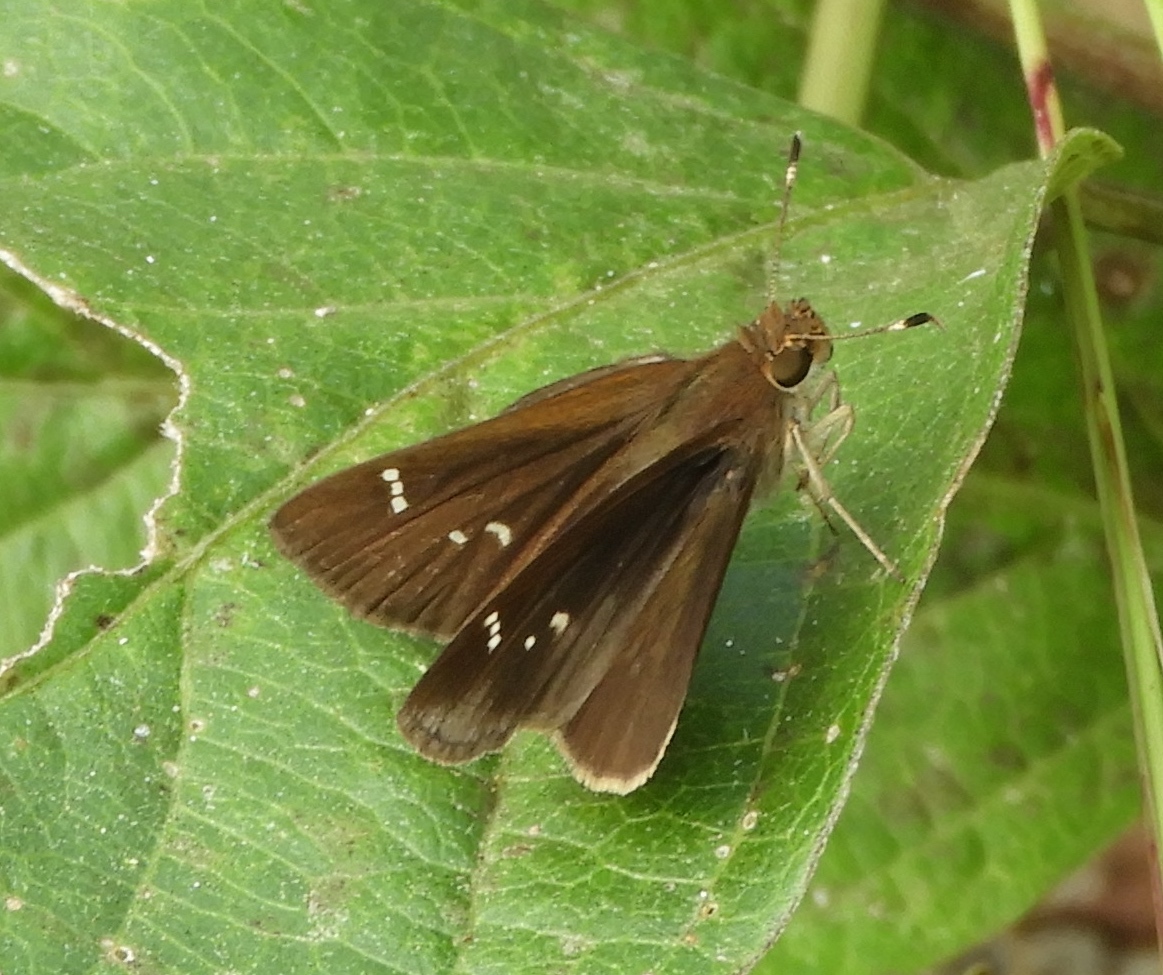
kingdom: Animalia
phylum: Arthropoda
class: Insecta
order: Lepidoptera
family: Hesperiidae
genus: Lerema
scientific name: Lerema accius
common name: Clouded skipper
